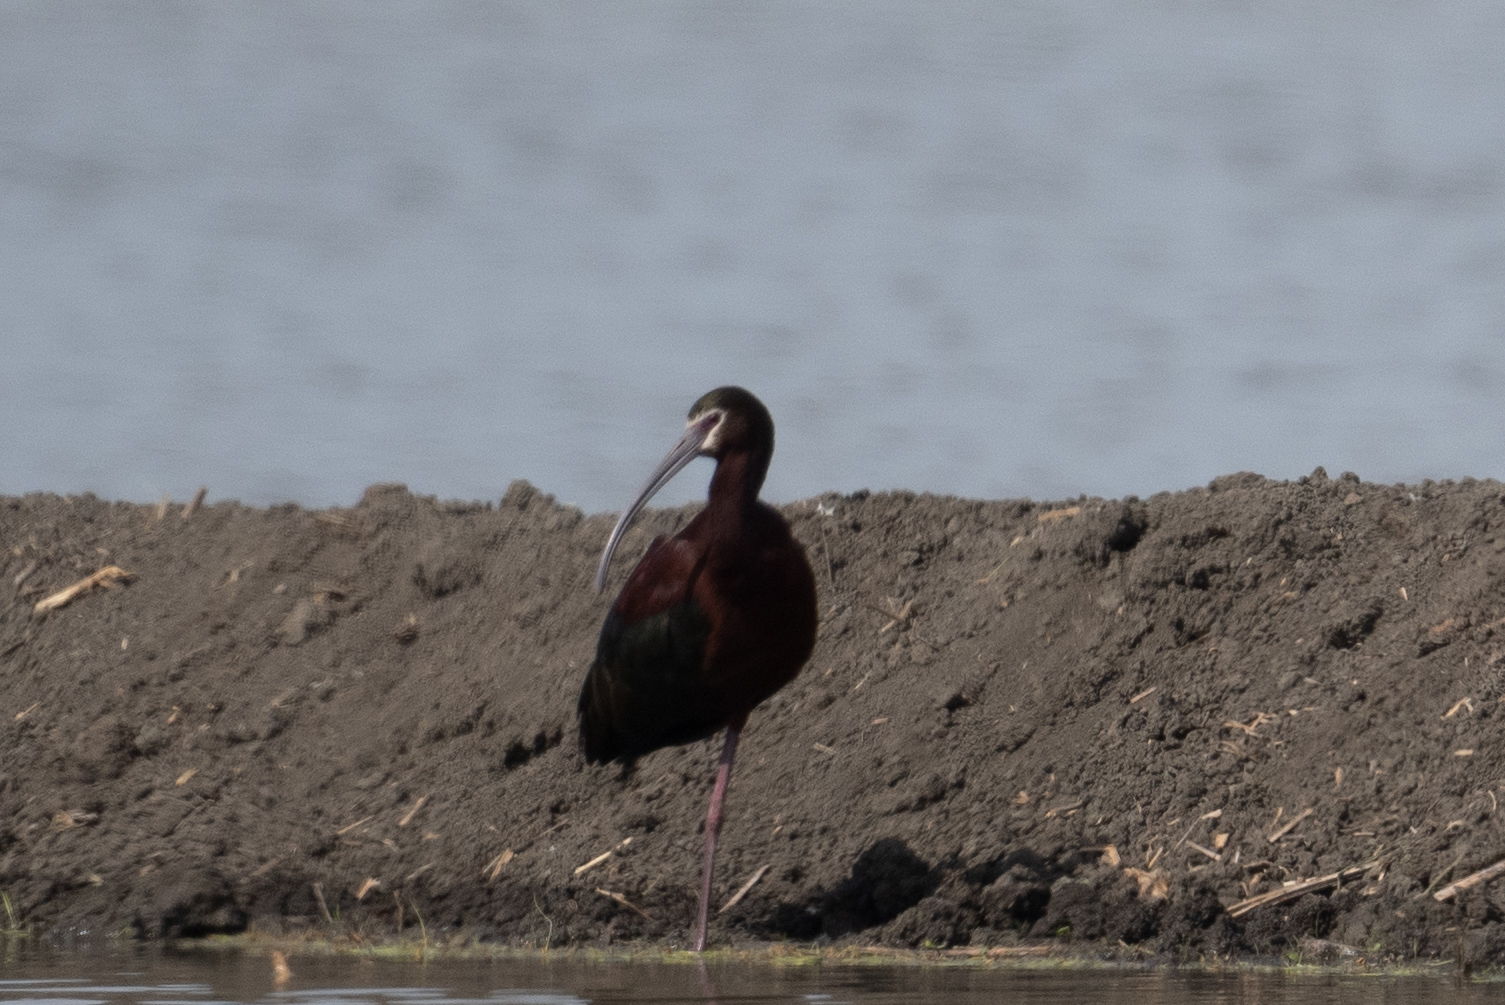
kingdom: Animalia
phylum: Chordata
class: Aves
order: Pelecaniformes
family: Threskiornithidae
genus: Plegadis
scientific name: Plegadis chihi
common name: White-faced ibis
